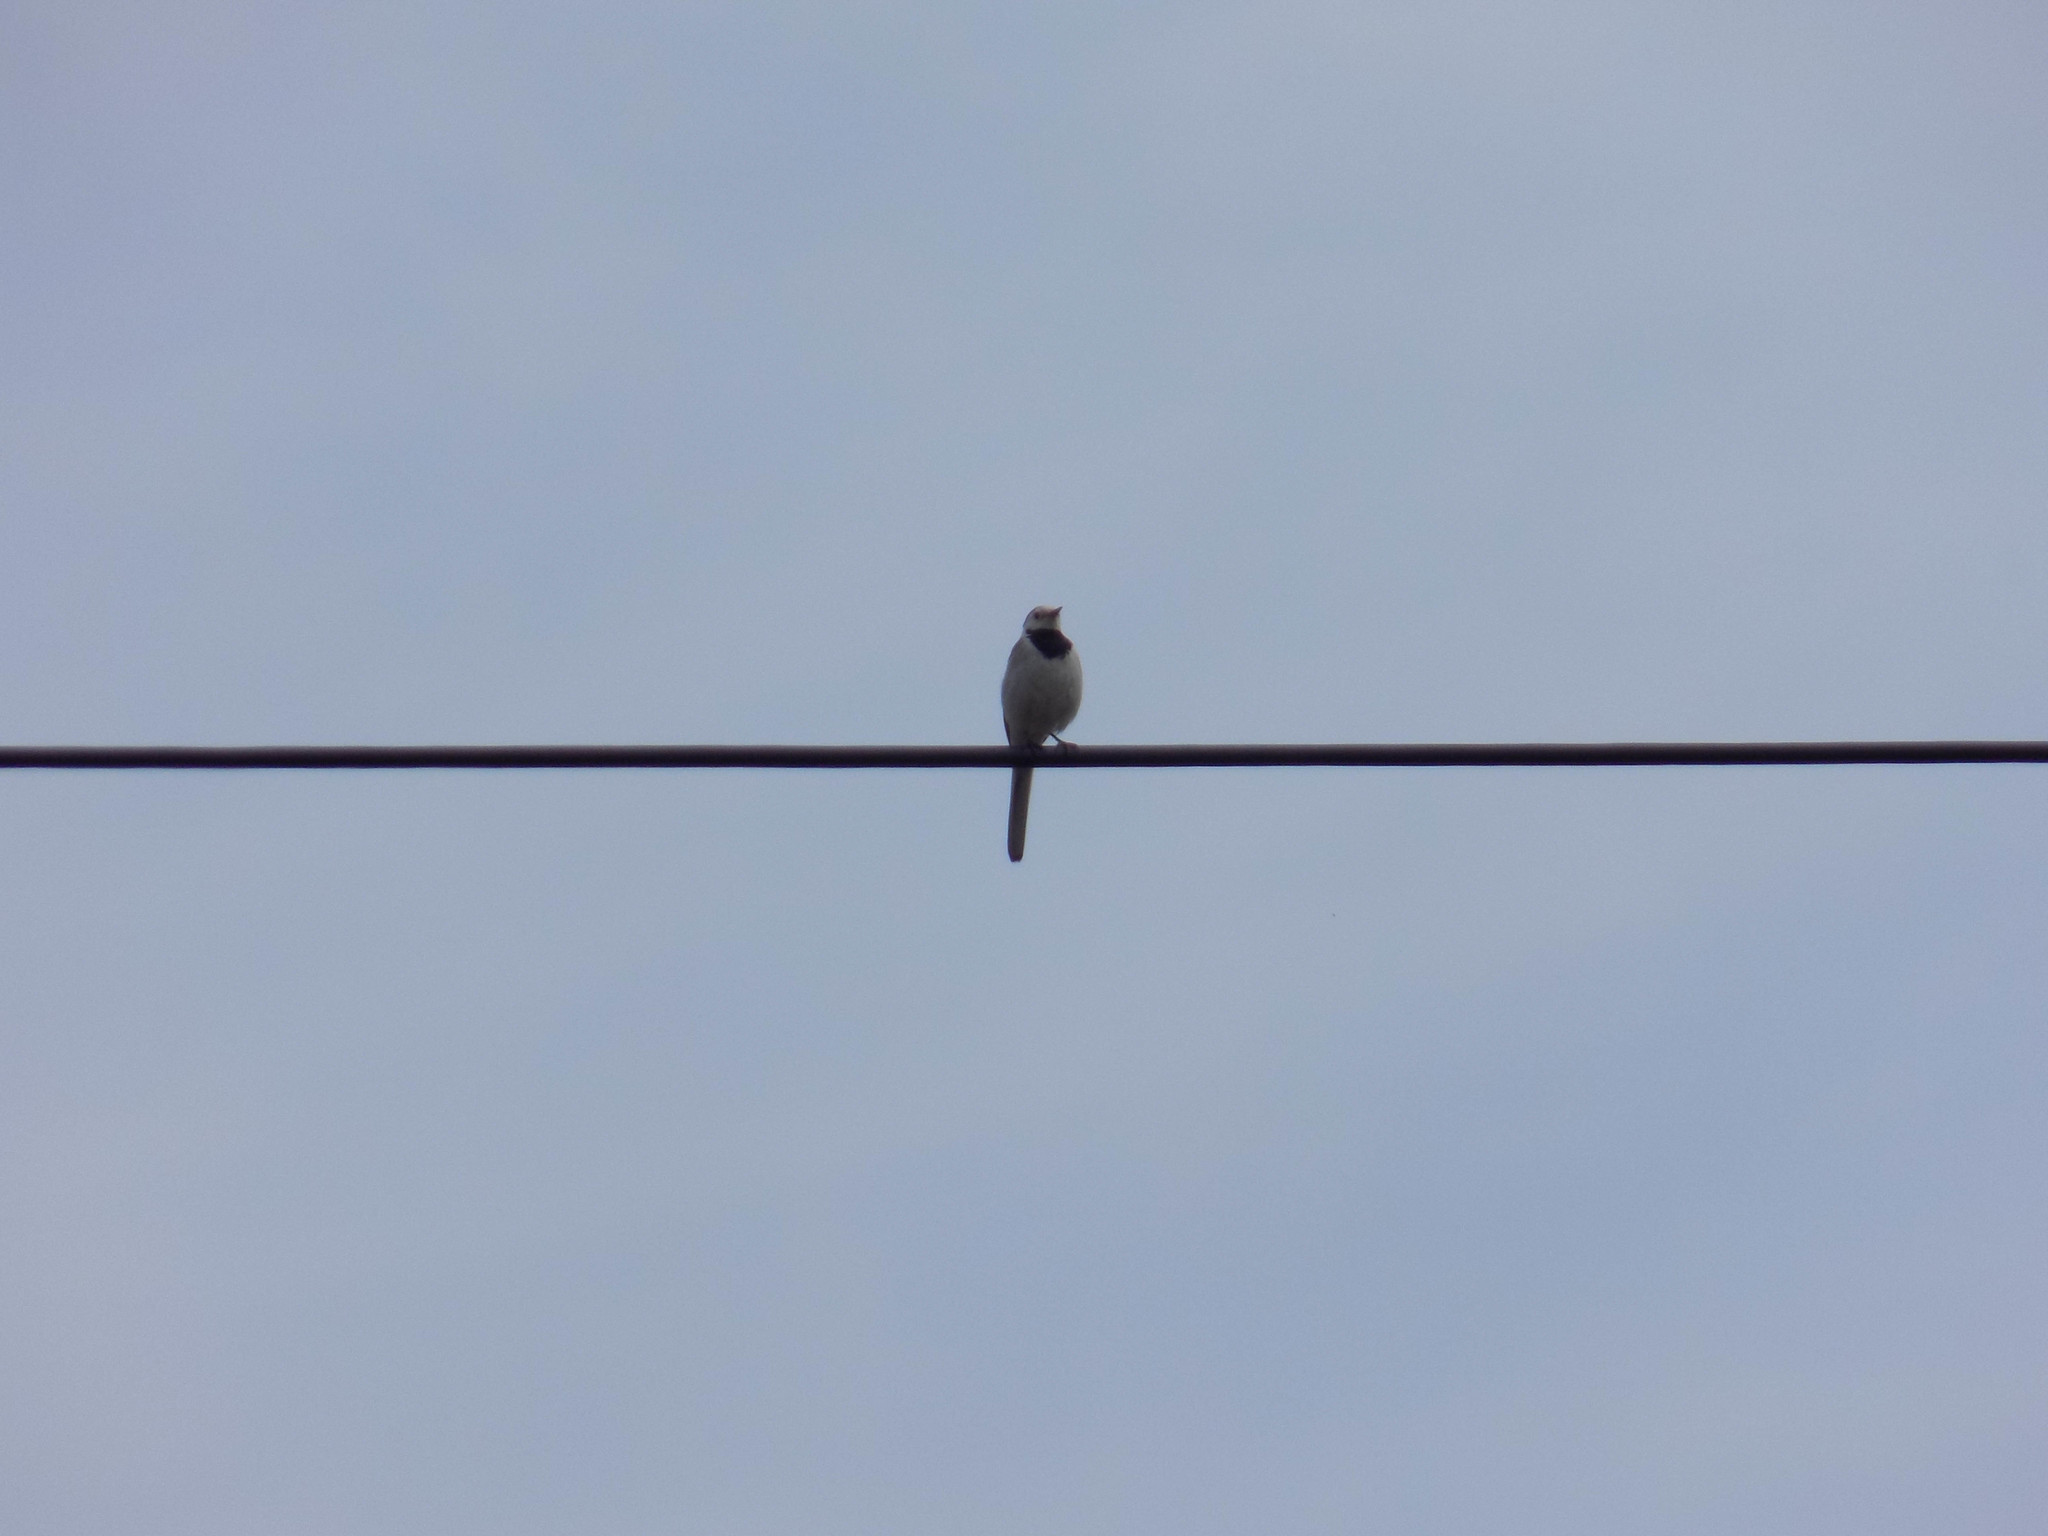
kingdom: Animalia
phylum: Chordata
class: Aves
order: Passeriformes
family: Motacillidae
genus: Motacilla
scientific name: Motacilla alba
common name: White wagtail
